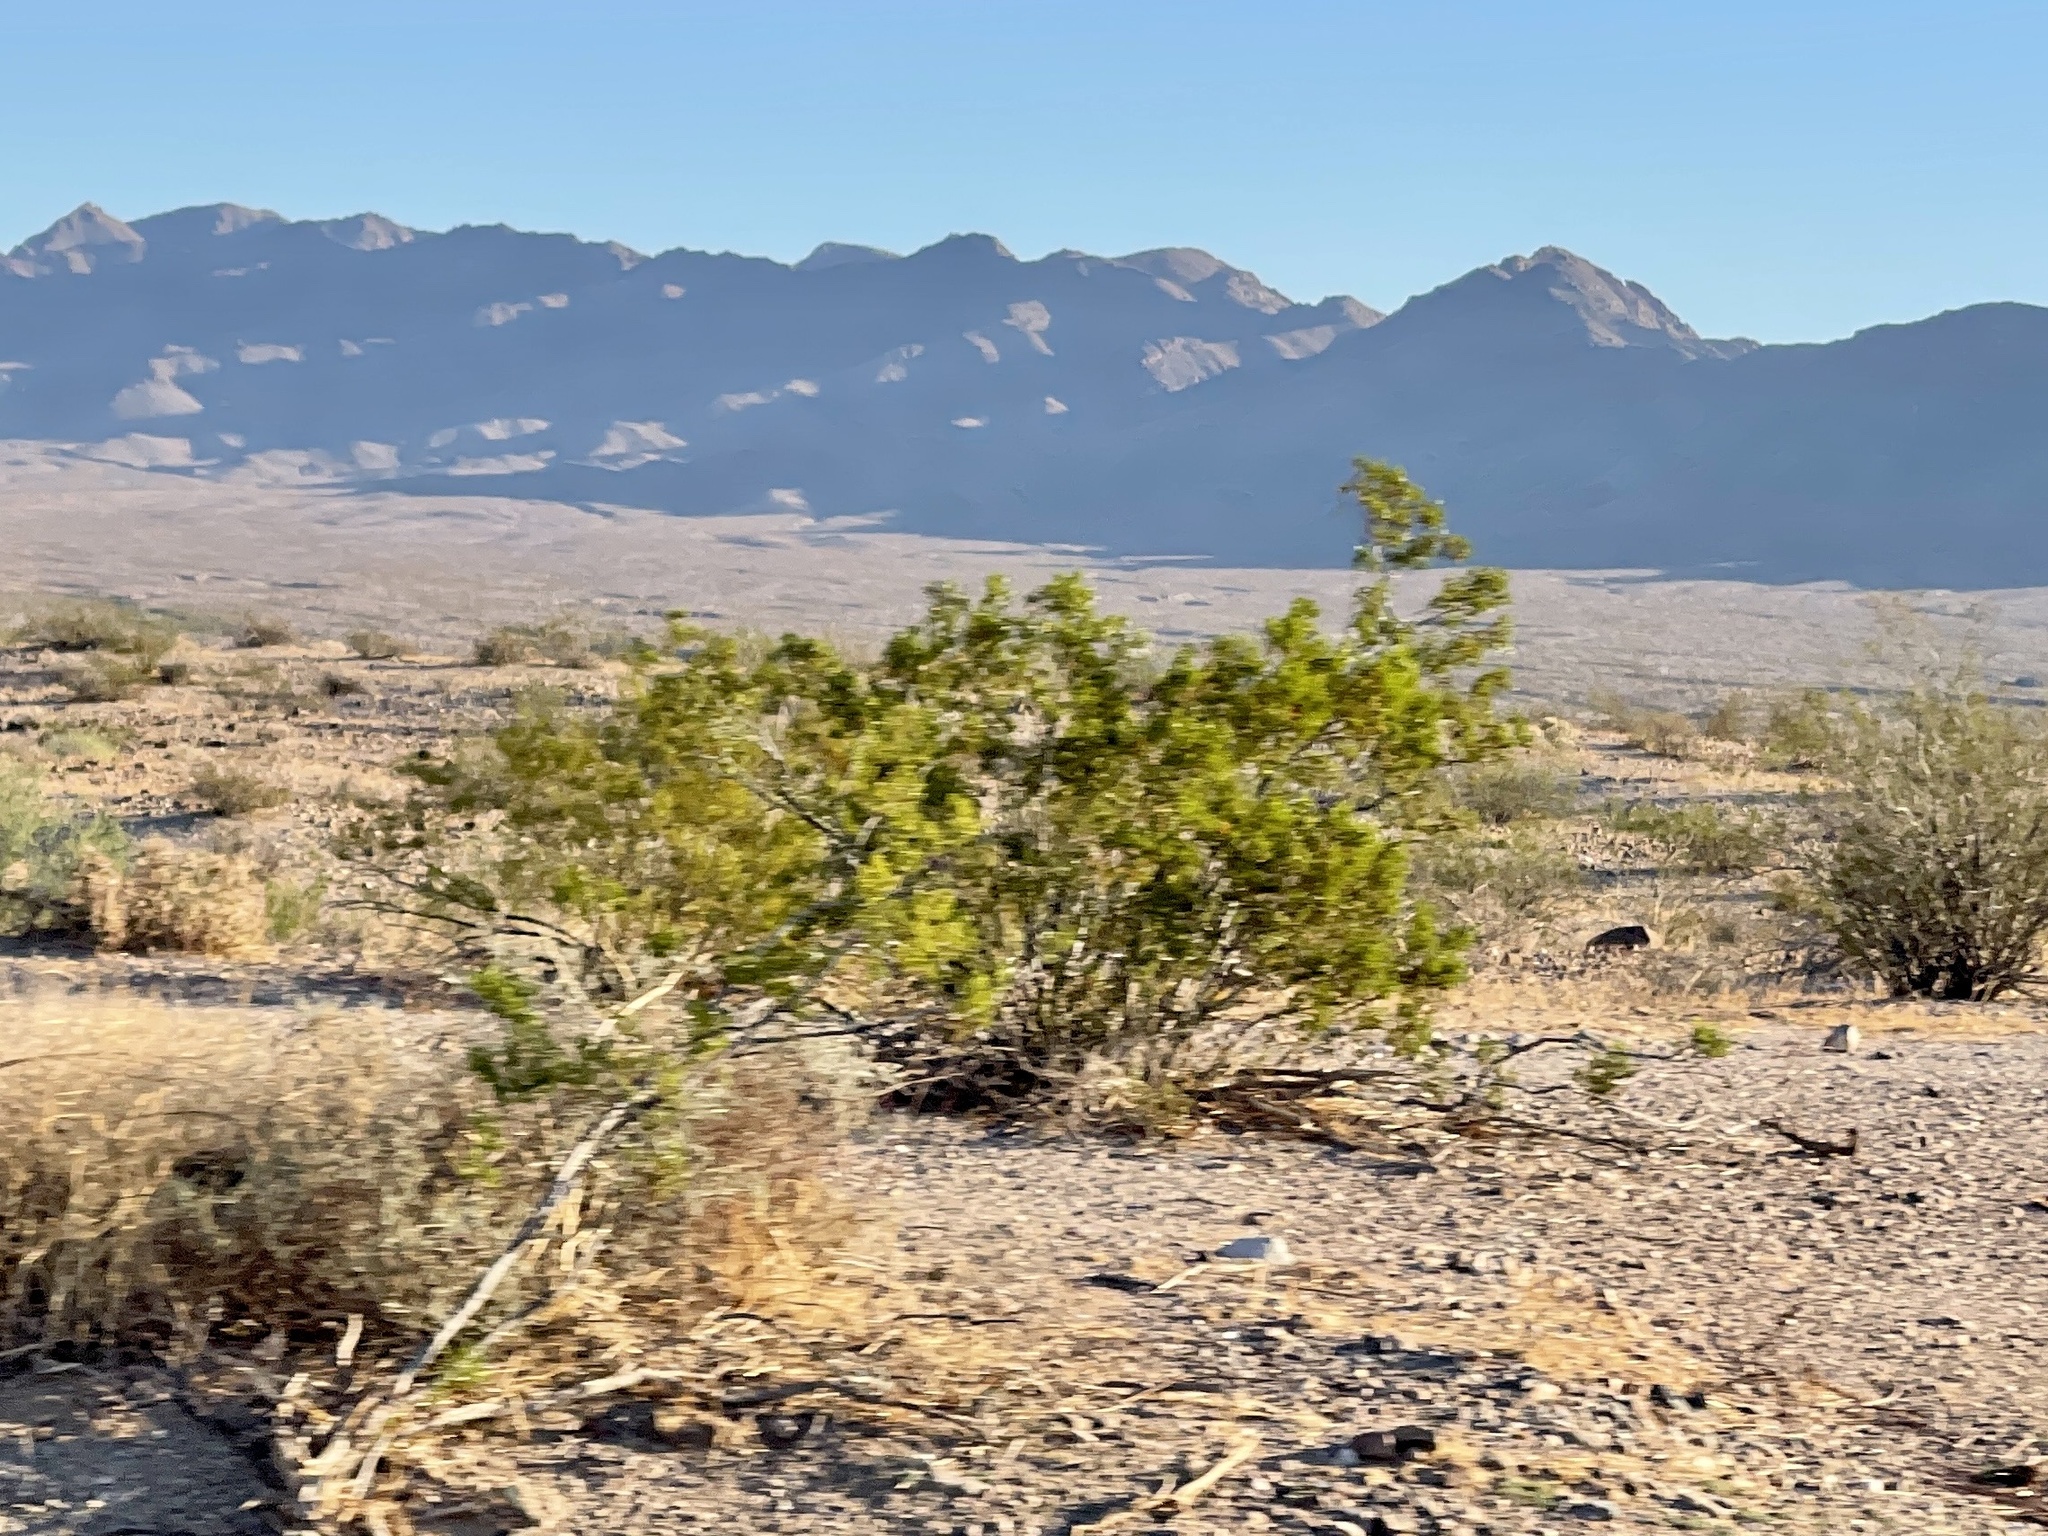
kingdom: Plantae
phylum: Tracheophyta
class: Magnoliopsida
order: Zygophyllales
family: Zygophyllaceae
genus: Larrea
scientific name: Larrea tridentata
